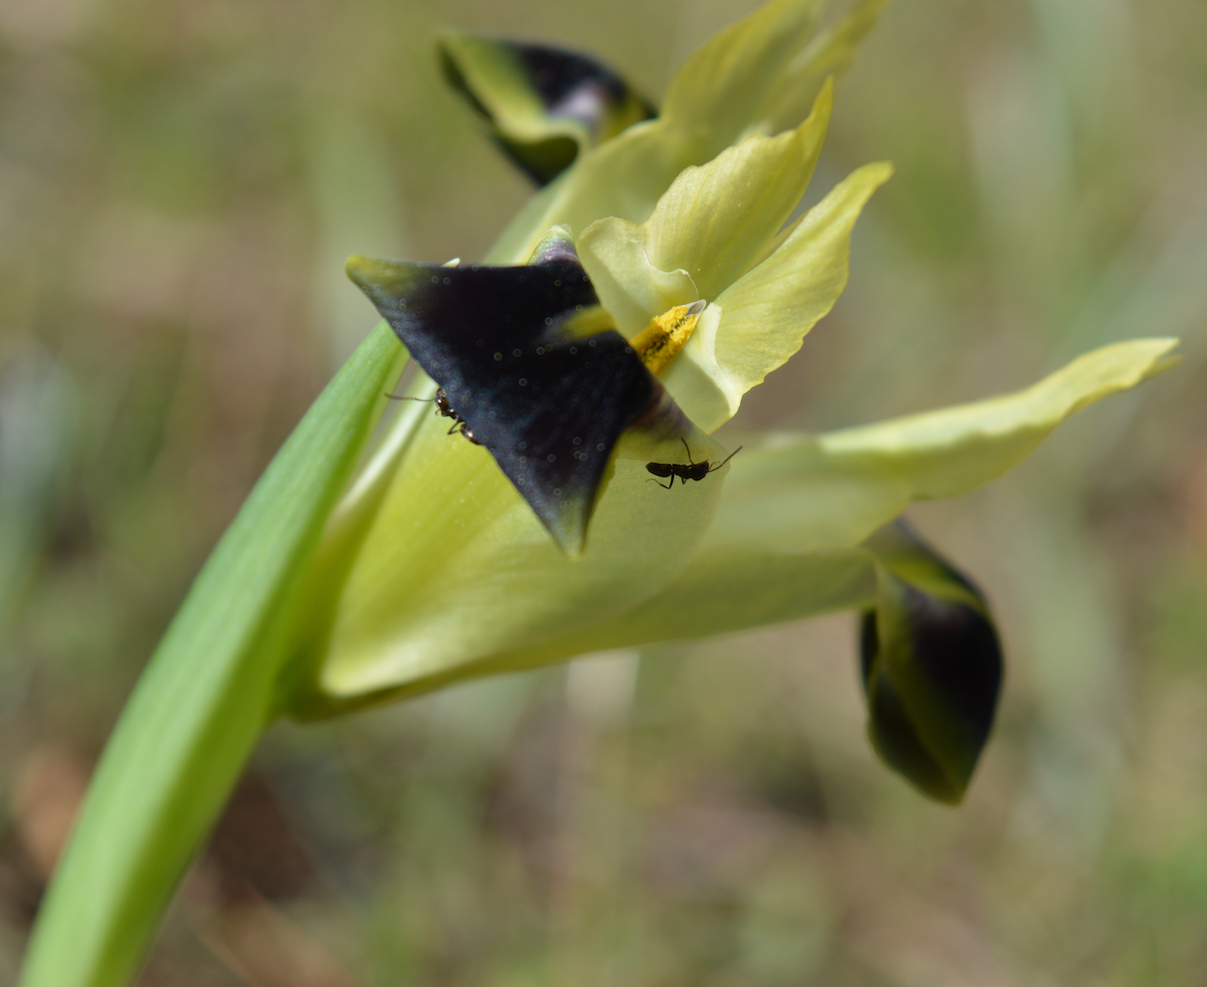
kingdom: Plantae
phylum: Tracheophyta
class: Liliopsida
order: Asparagales
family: Iridaceae
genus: Iris
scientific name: Iris tuberosa
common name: Snake's-head iris
